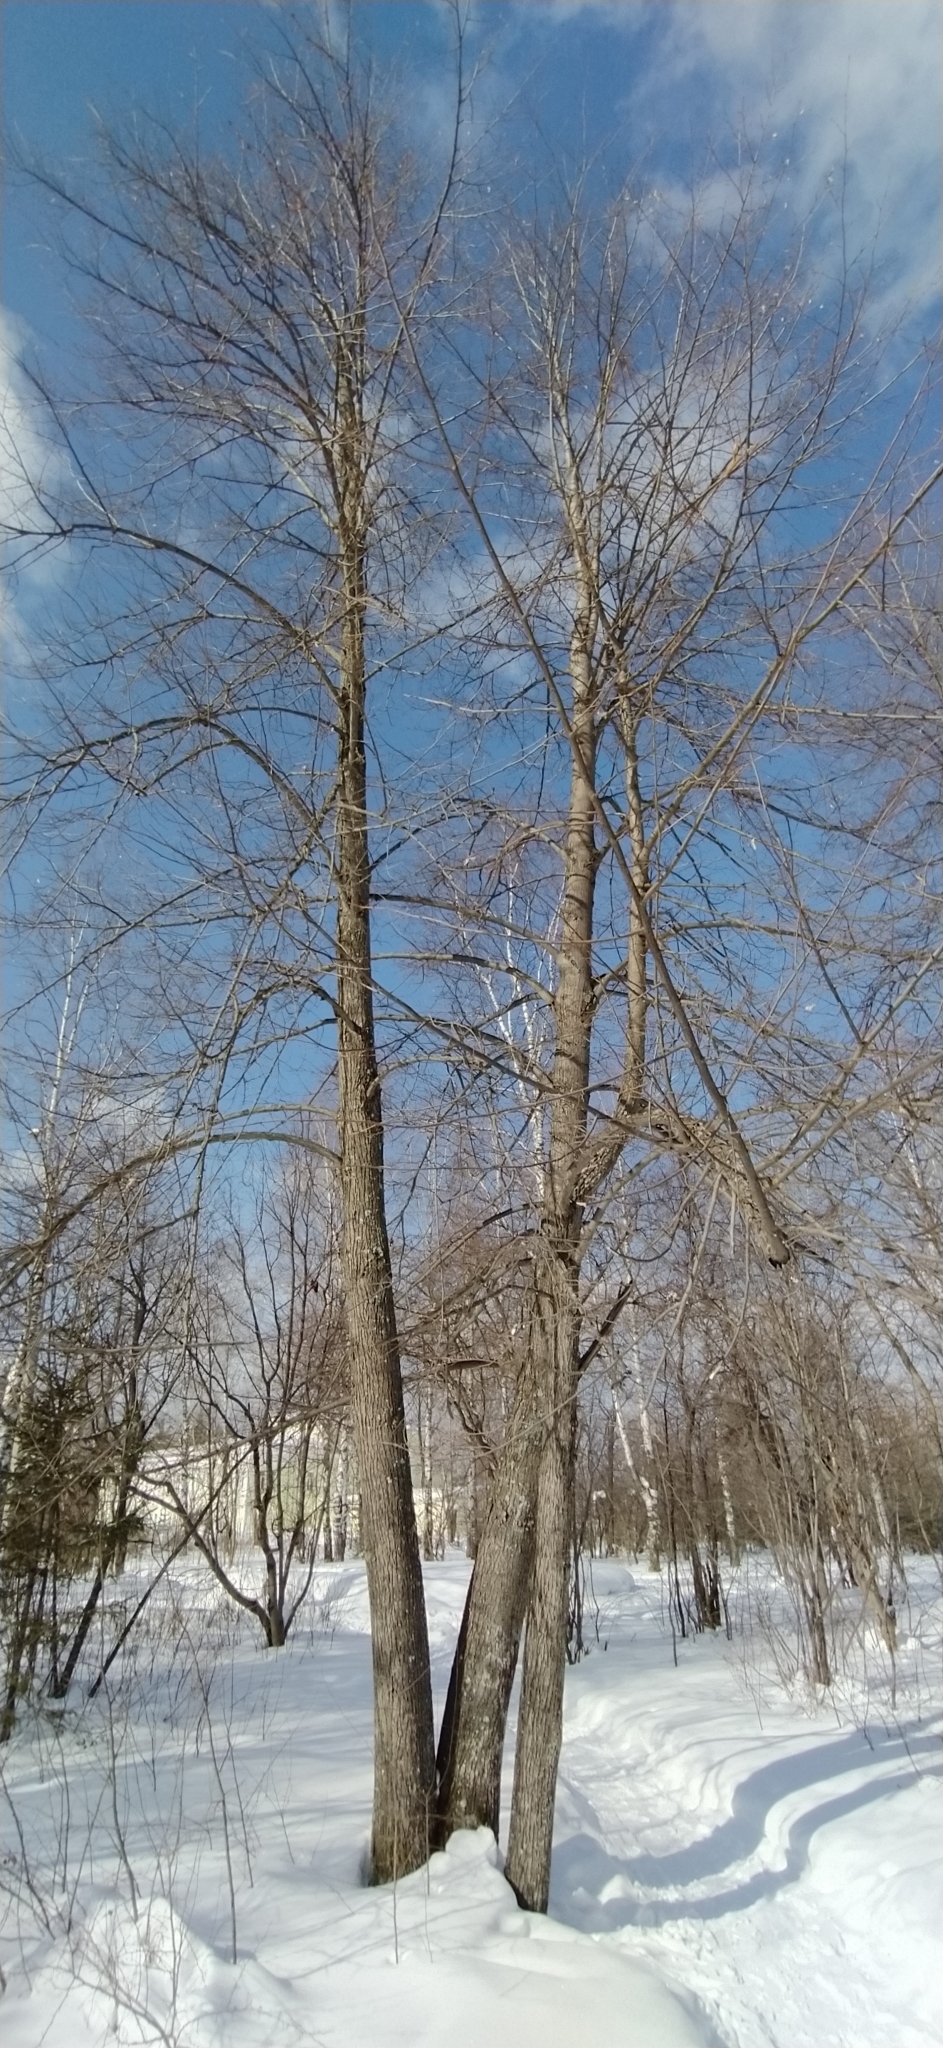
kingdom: Plantae
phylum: Tracheophyta
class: Magnoliopsida
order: Malvales
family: Malvaceae
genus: Tilia
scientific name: Tilia cordata
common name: Small-leaved lime
